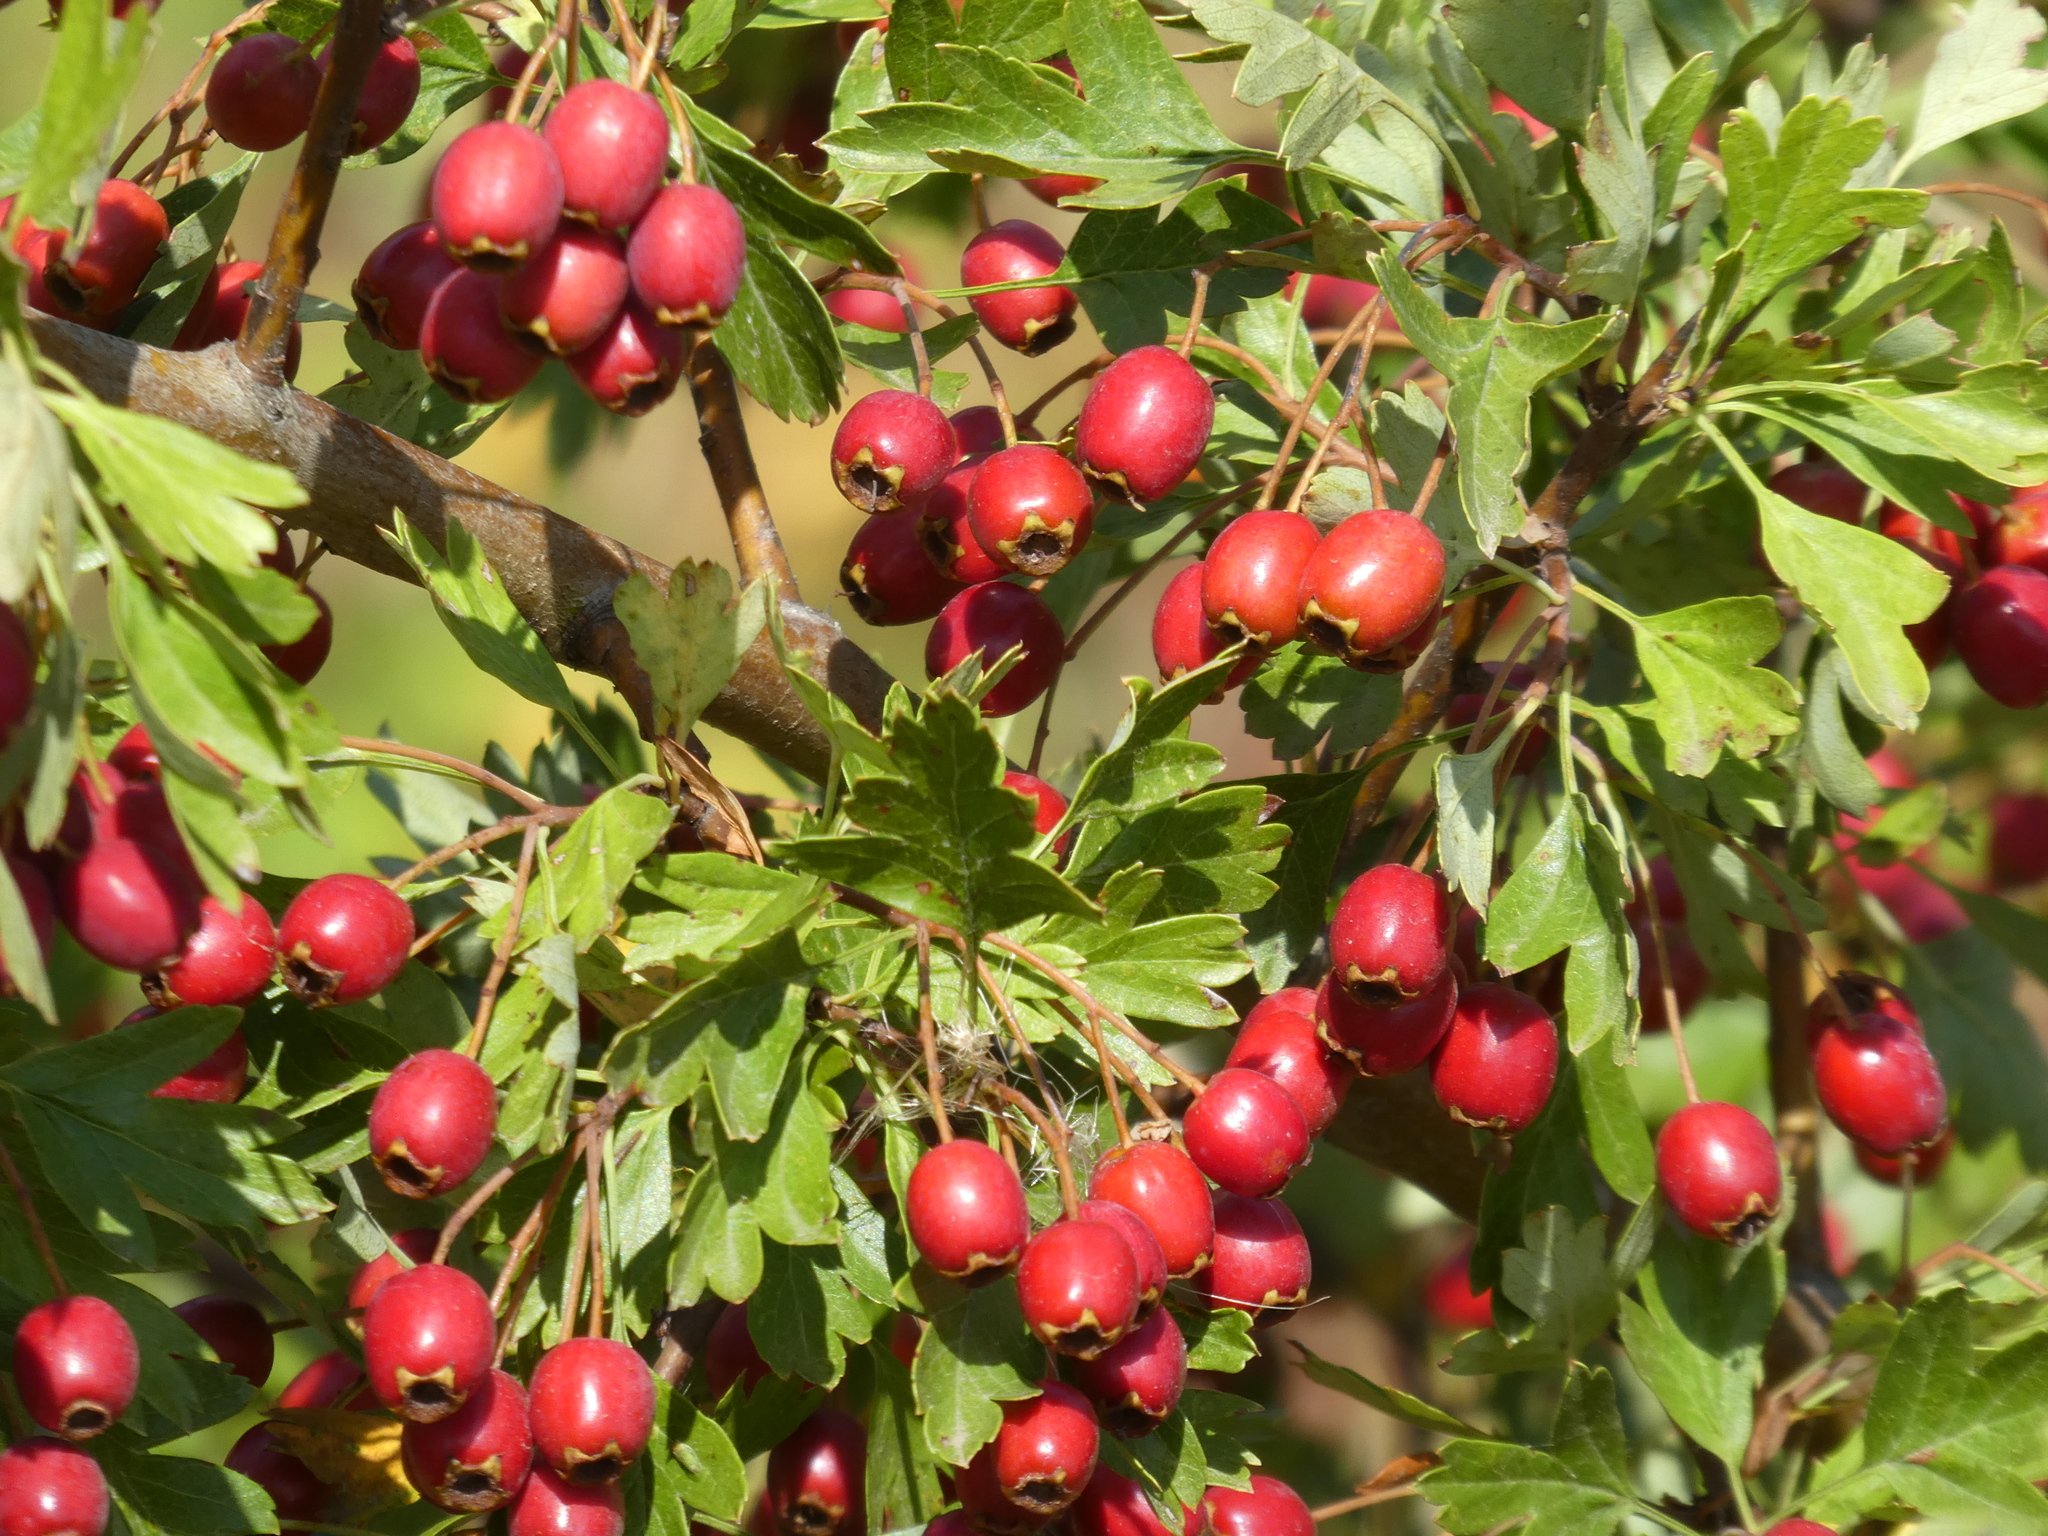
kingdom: Plantae
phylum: Tracheophyta
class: Magnoliopsida
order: Rosales
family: Rosaceae
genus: Crataegus
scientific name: Crataegus monogyna
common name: Hawthorn
